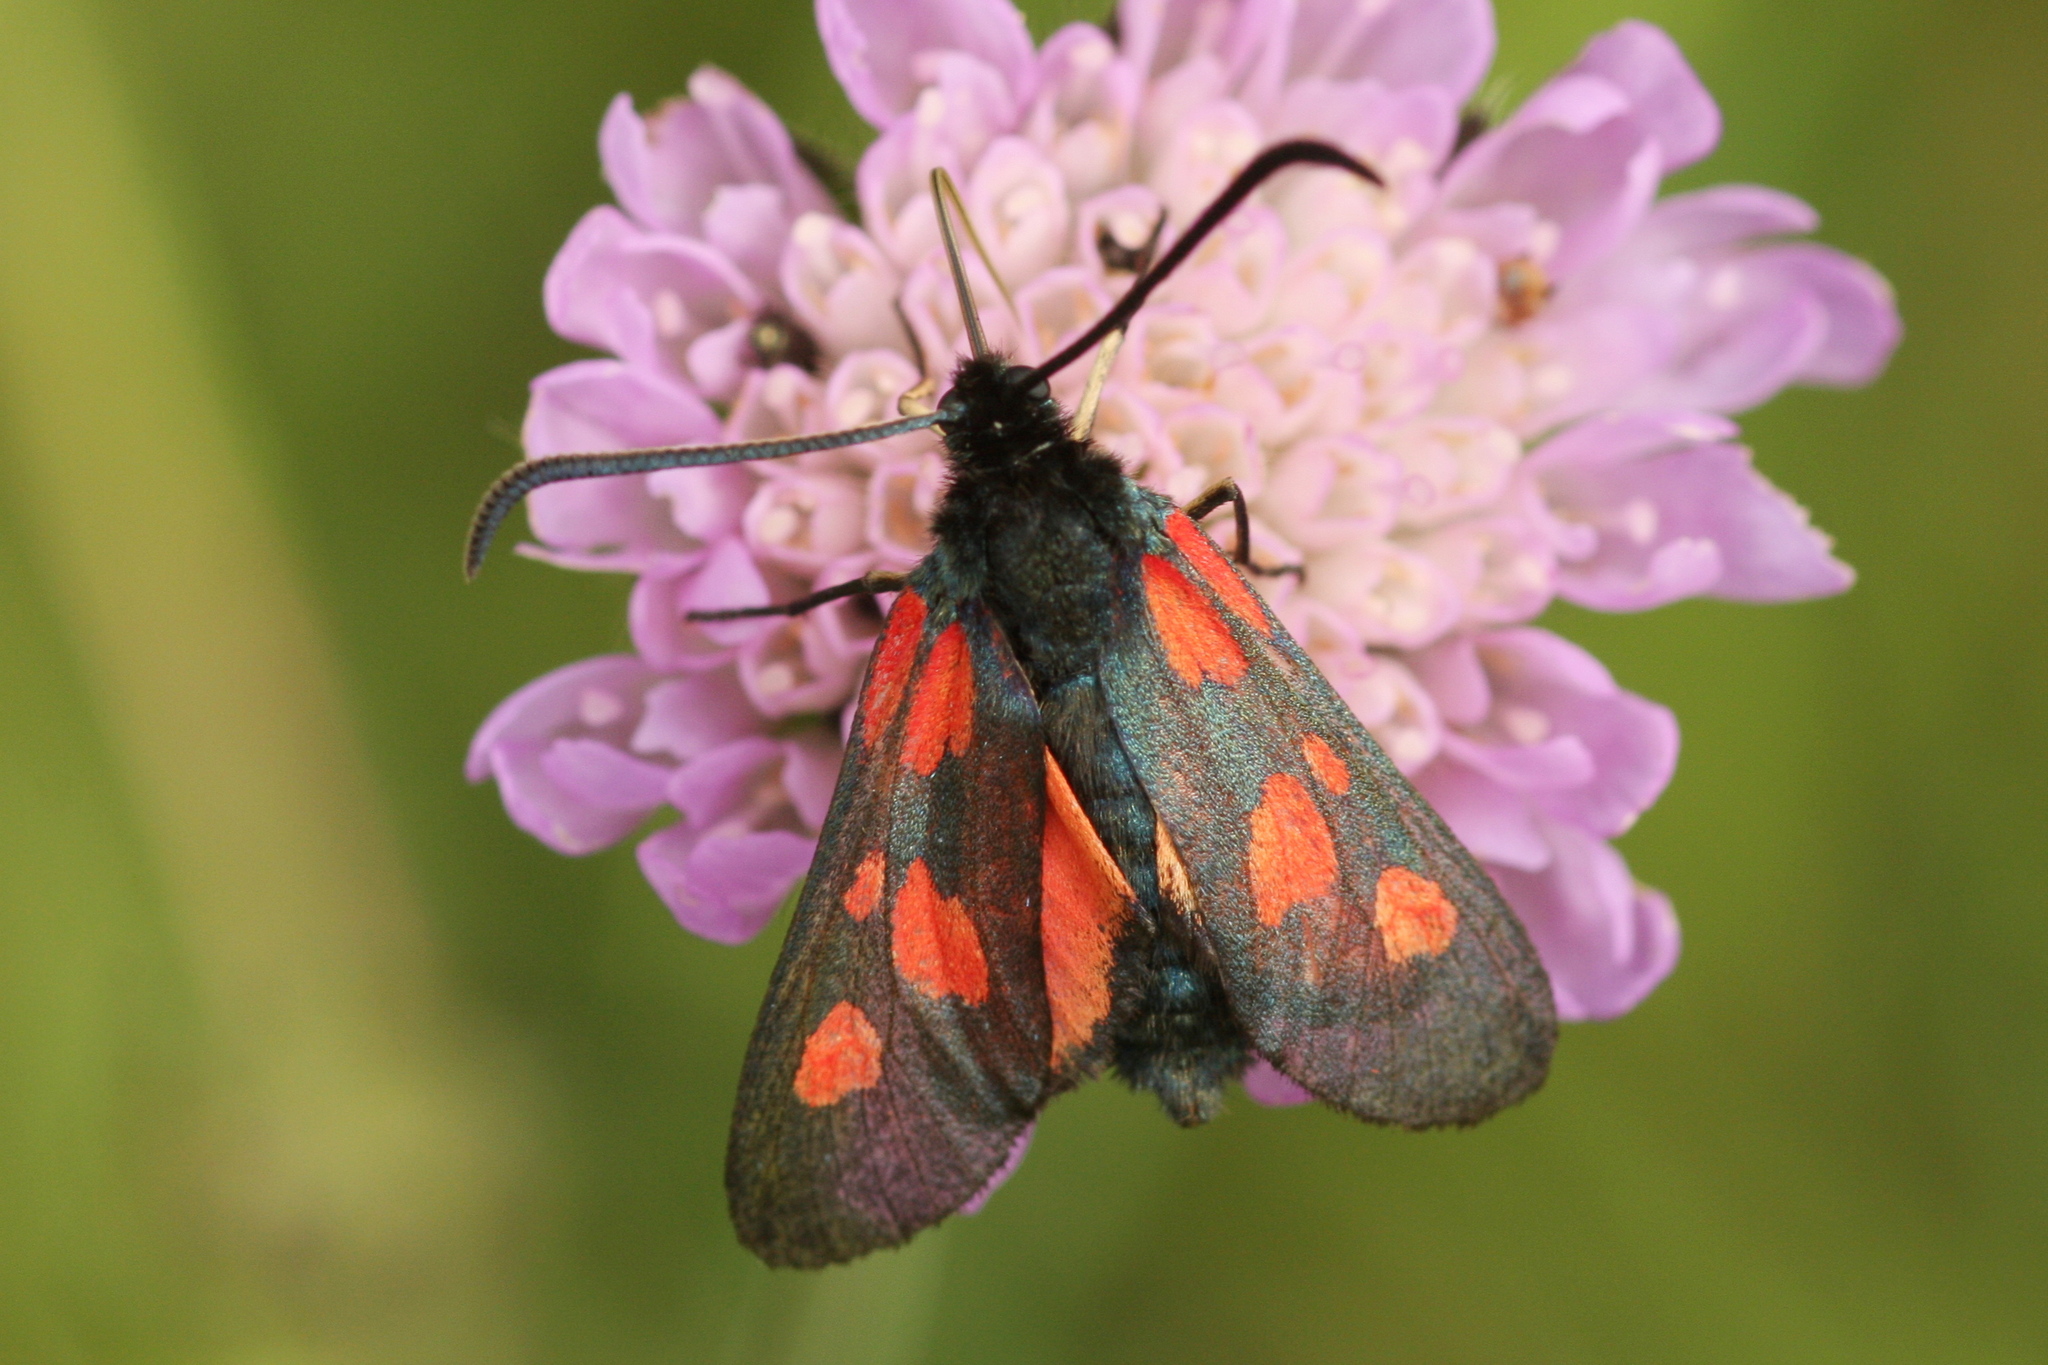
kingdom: Animalia
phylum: Arthropoda
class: Insecta
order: Lepidoptera
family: Zygaenidae
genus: Zygaena
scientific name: Zygaena viciae
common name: New forest burnet
